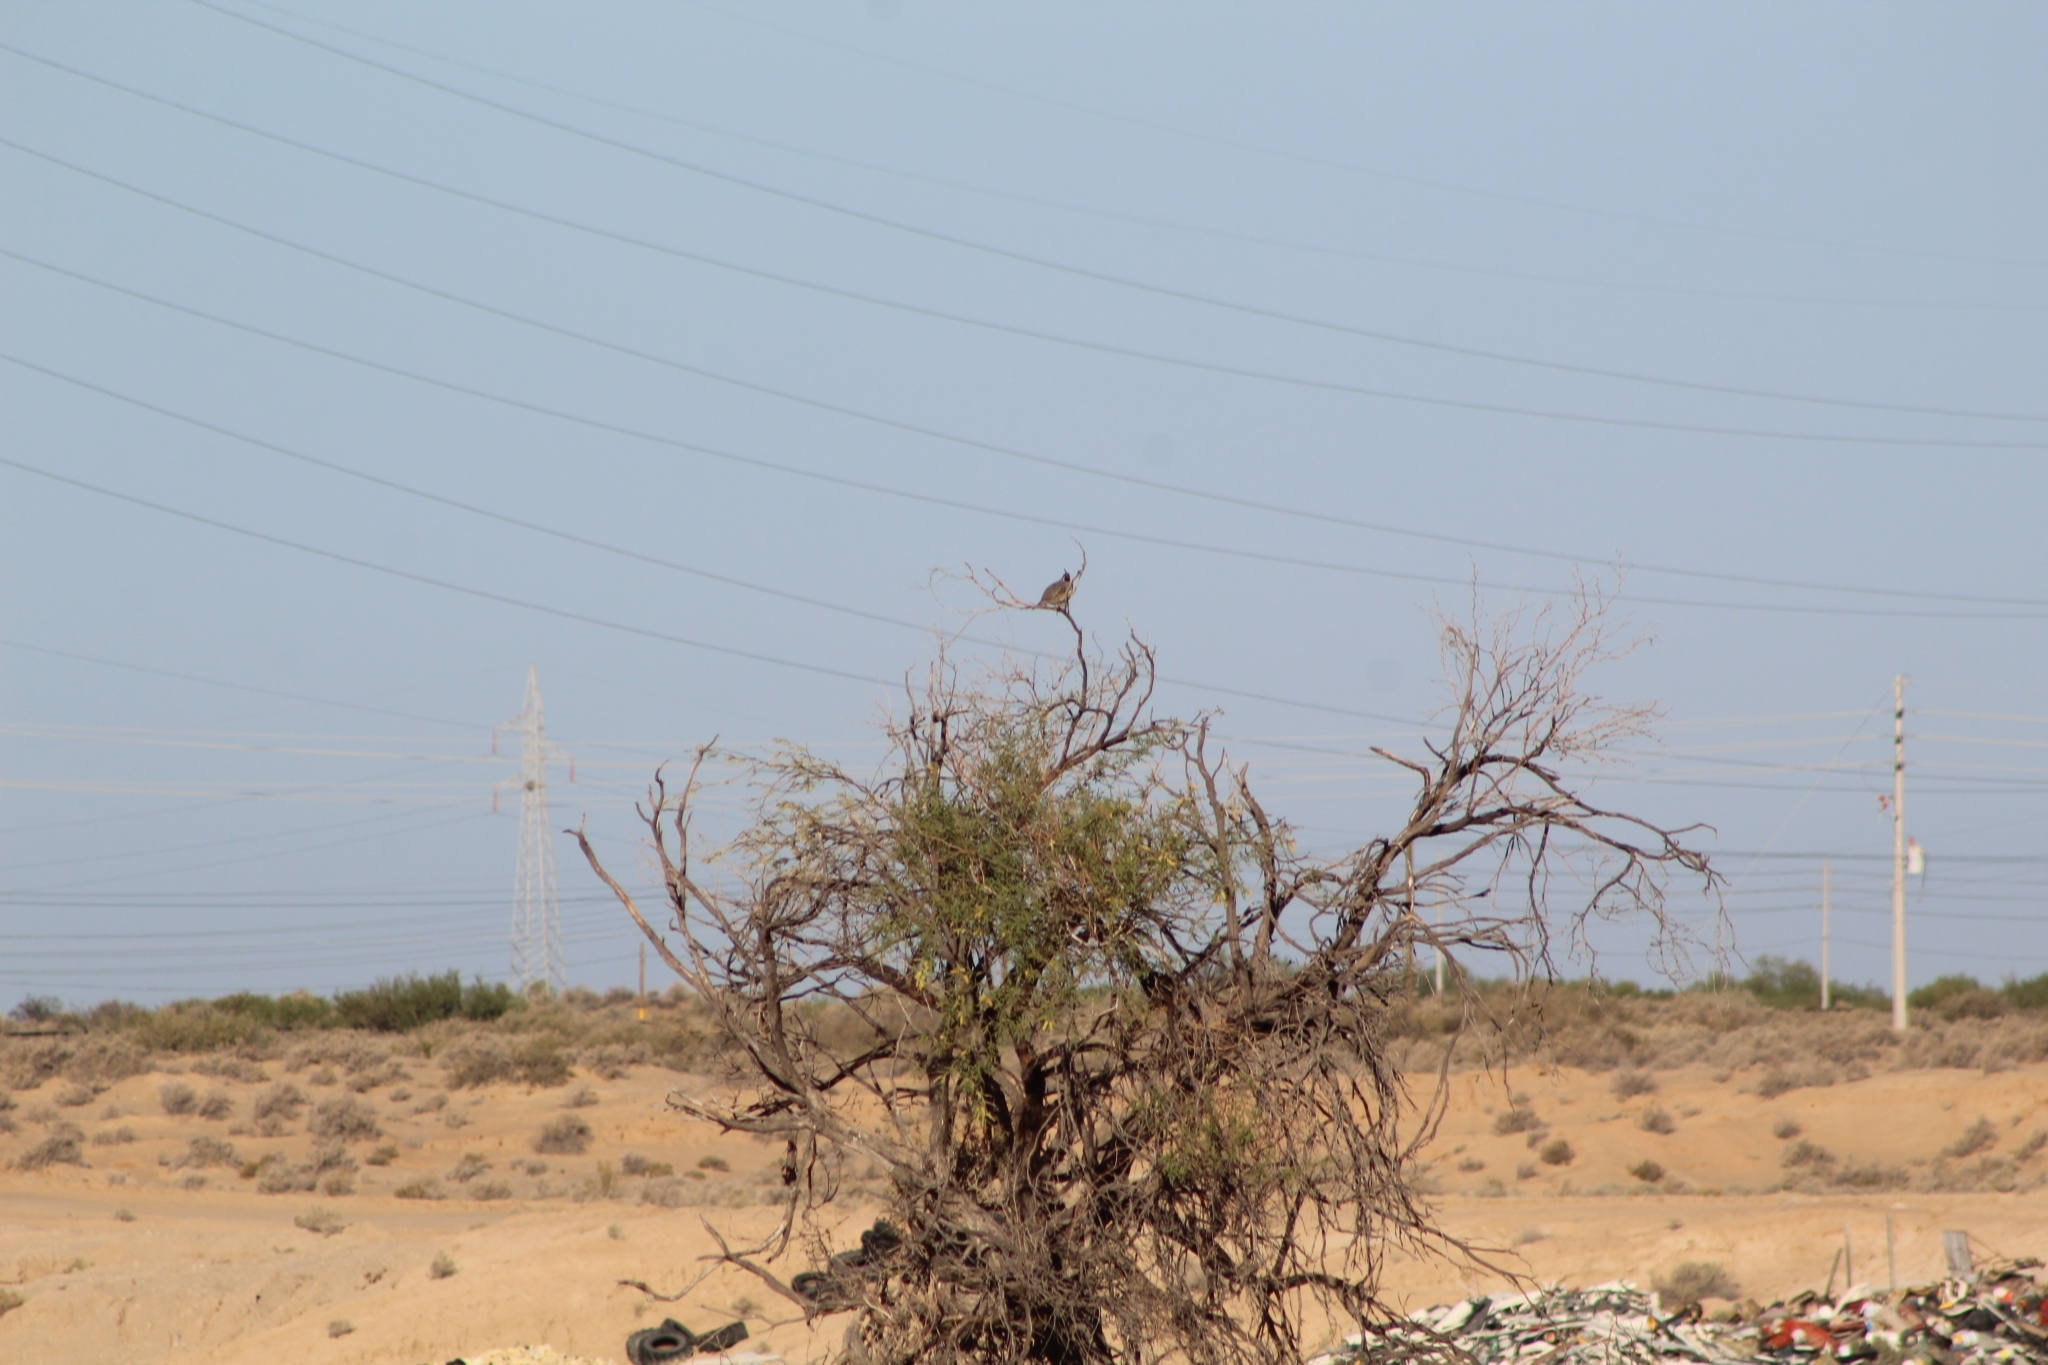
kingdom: Animalia
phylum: Chordata
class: Aves
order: Galliformes
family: Odontophoridae
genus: Callipepla
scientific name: Callipepla gambelii
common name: Gambel's quail
